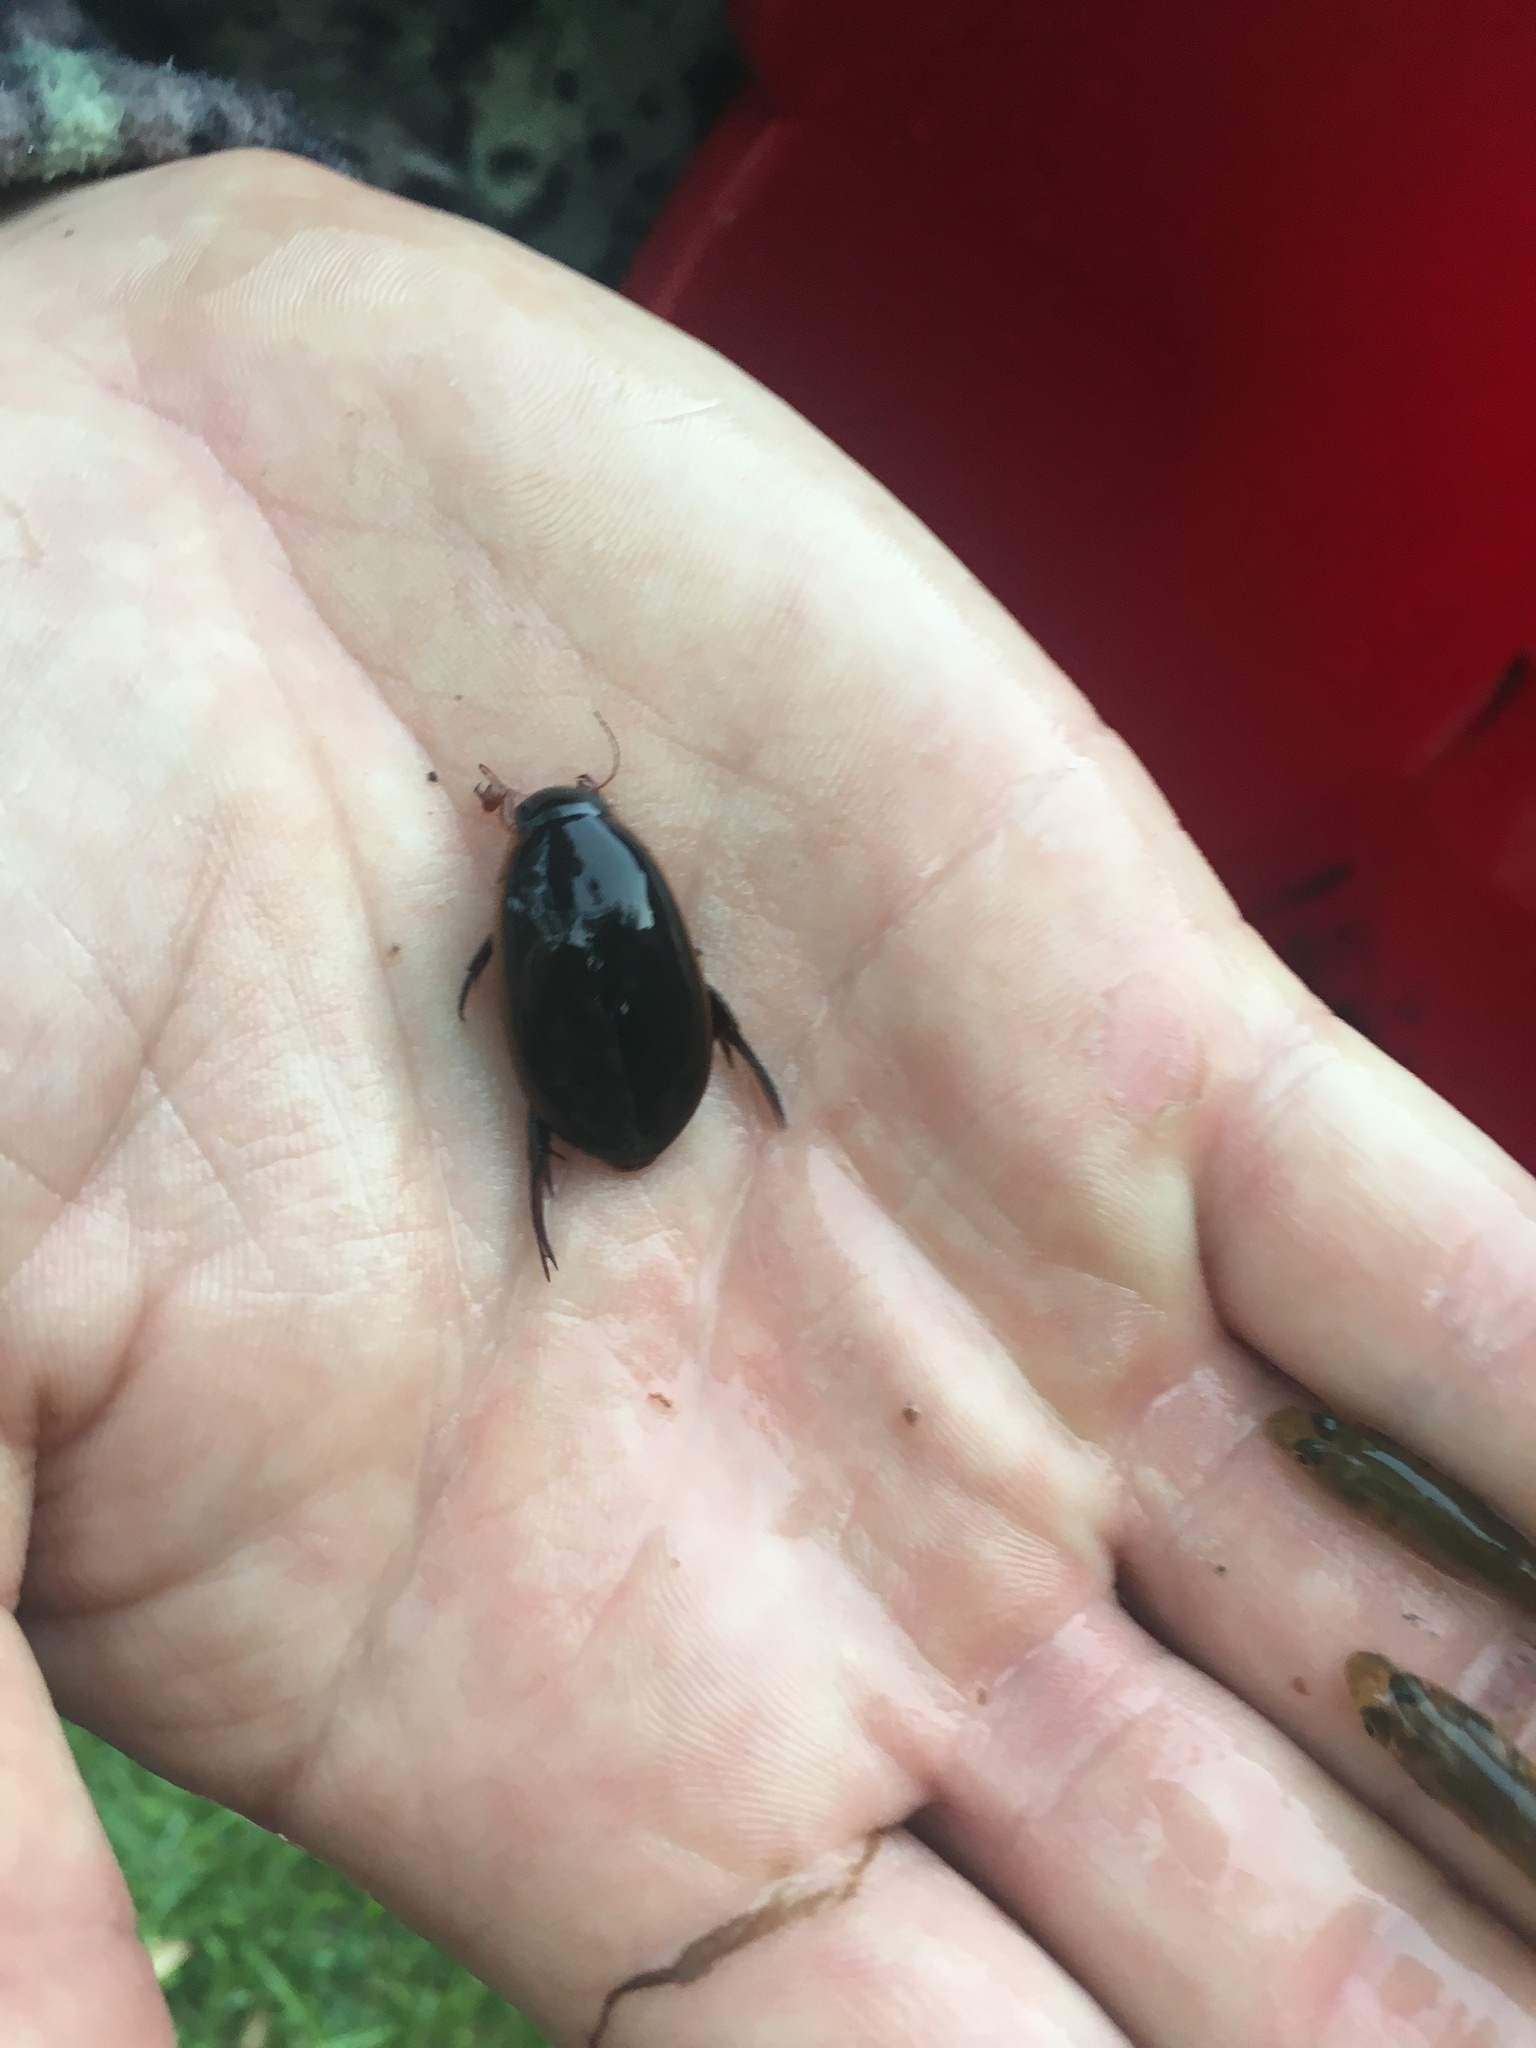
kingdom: Animalia
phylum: Arthropoda
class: Insecta
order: Coleoptera
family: Dytiscidae
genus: Onychohydrus
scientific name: Onychohydrus hookeri
